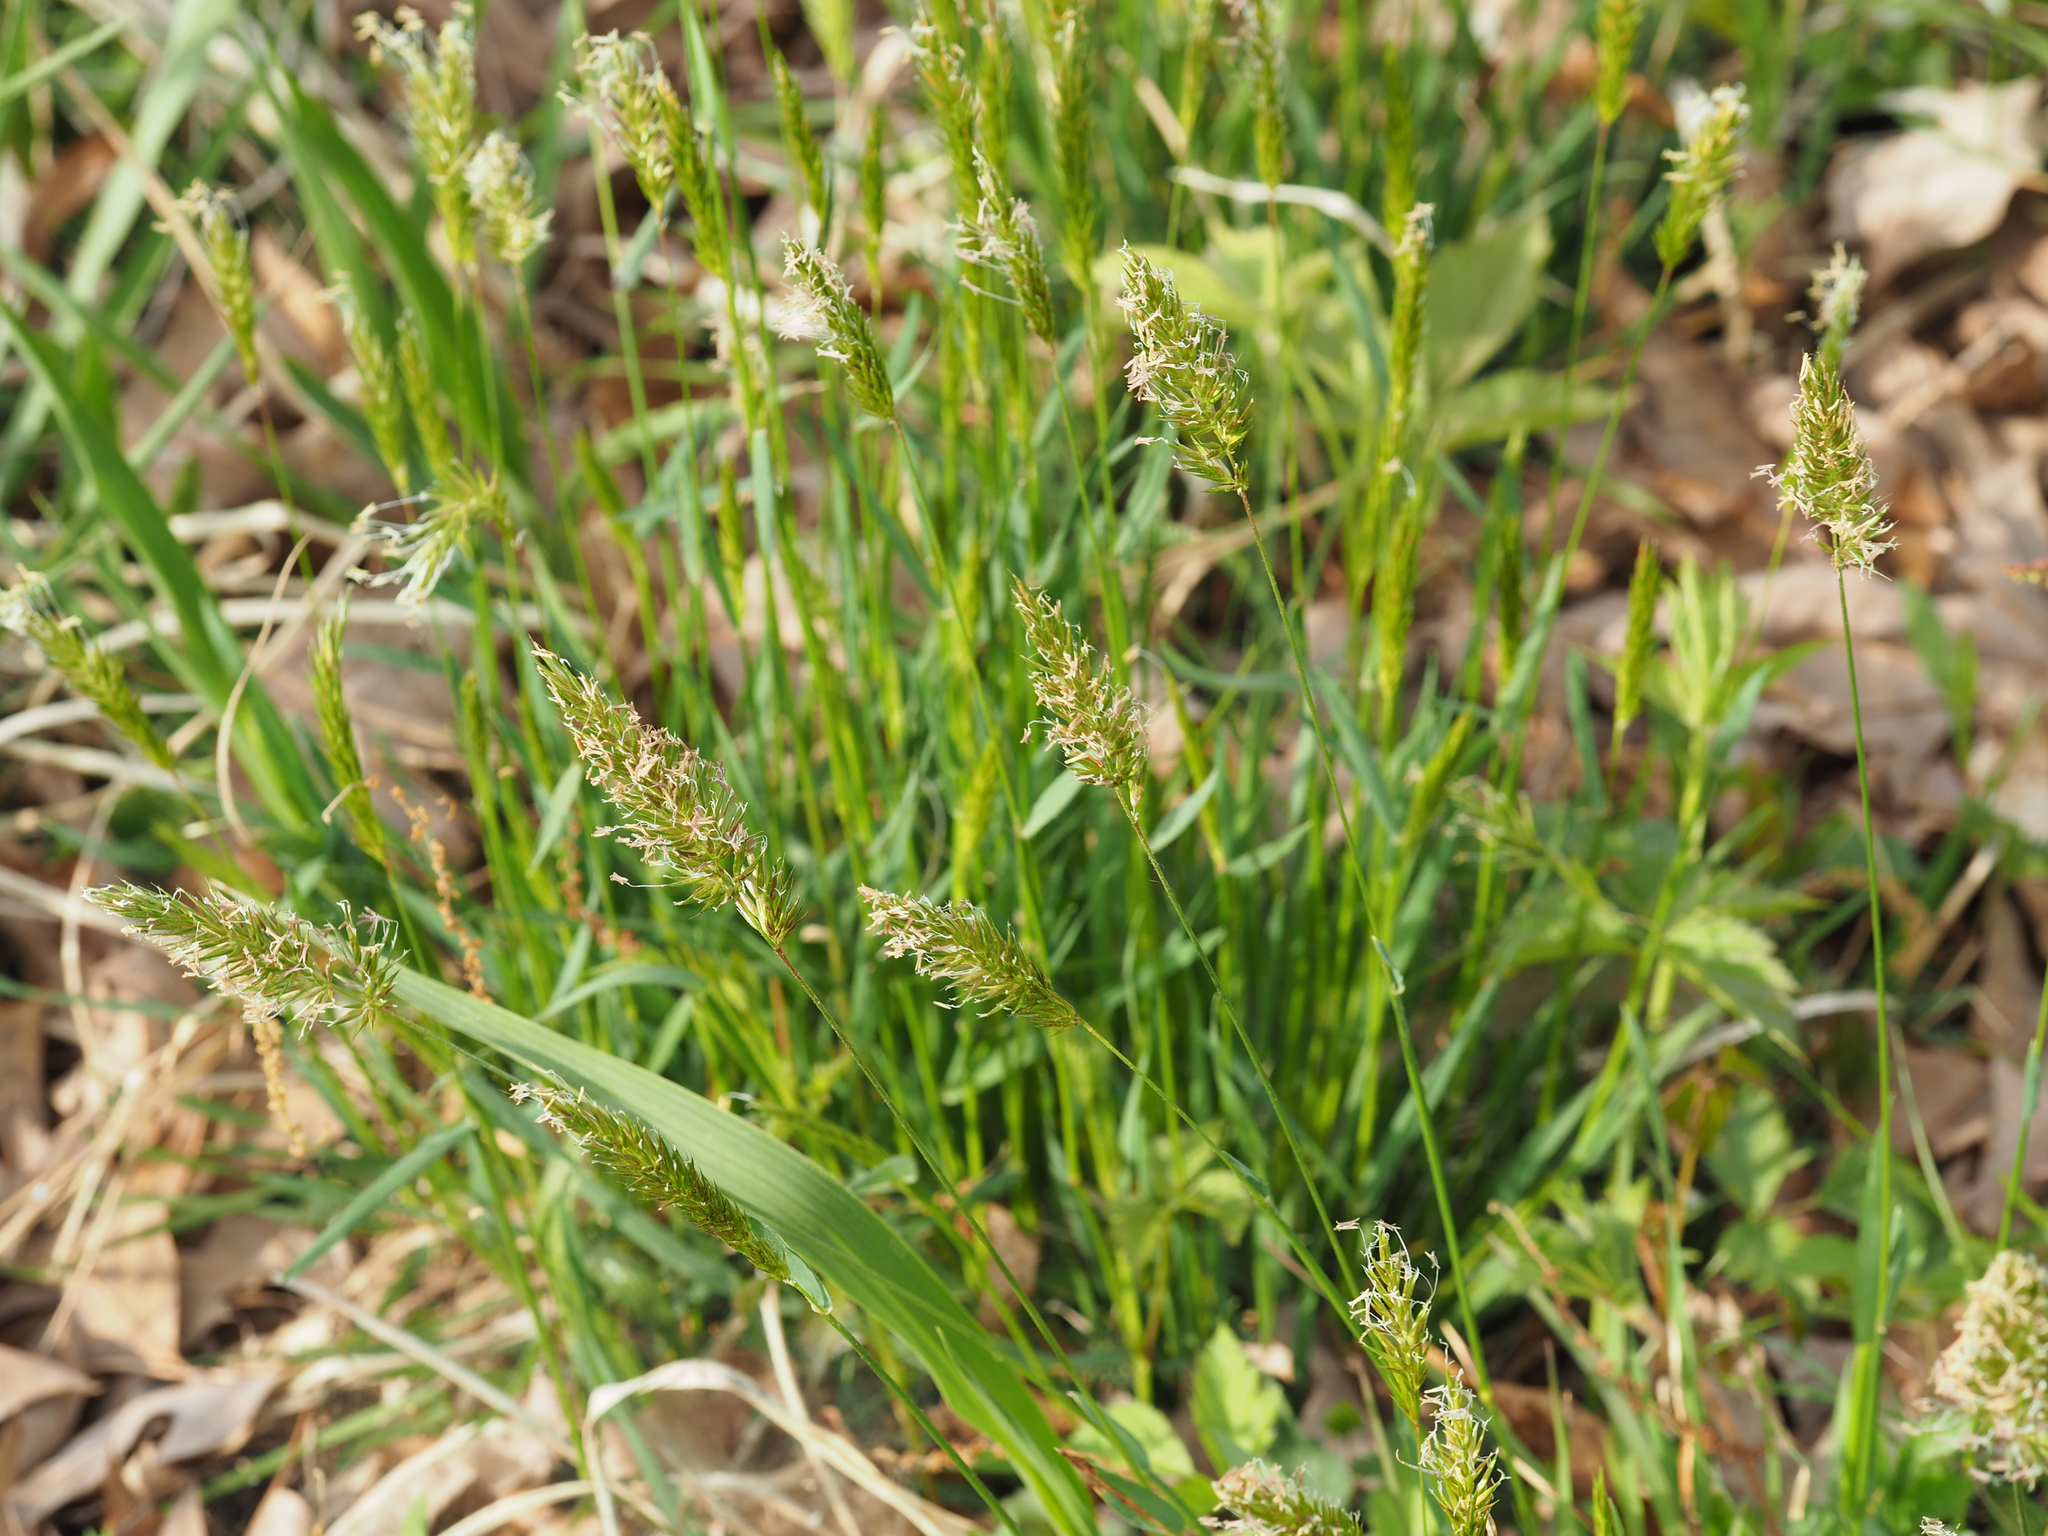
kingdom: Plantae
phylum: Tracheophyta
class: Liliopsida
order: Poales
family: Poaceae
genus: Anthoxanthum
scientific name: Anthoxanthum odoratum
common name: Sweet vernalgrass
